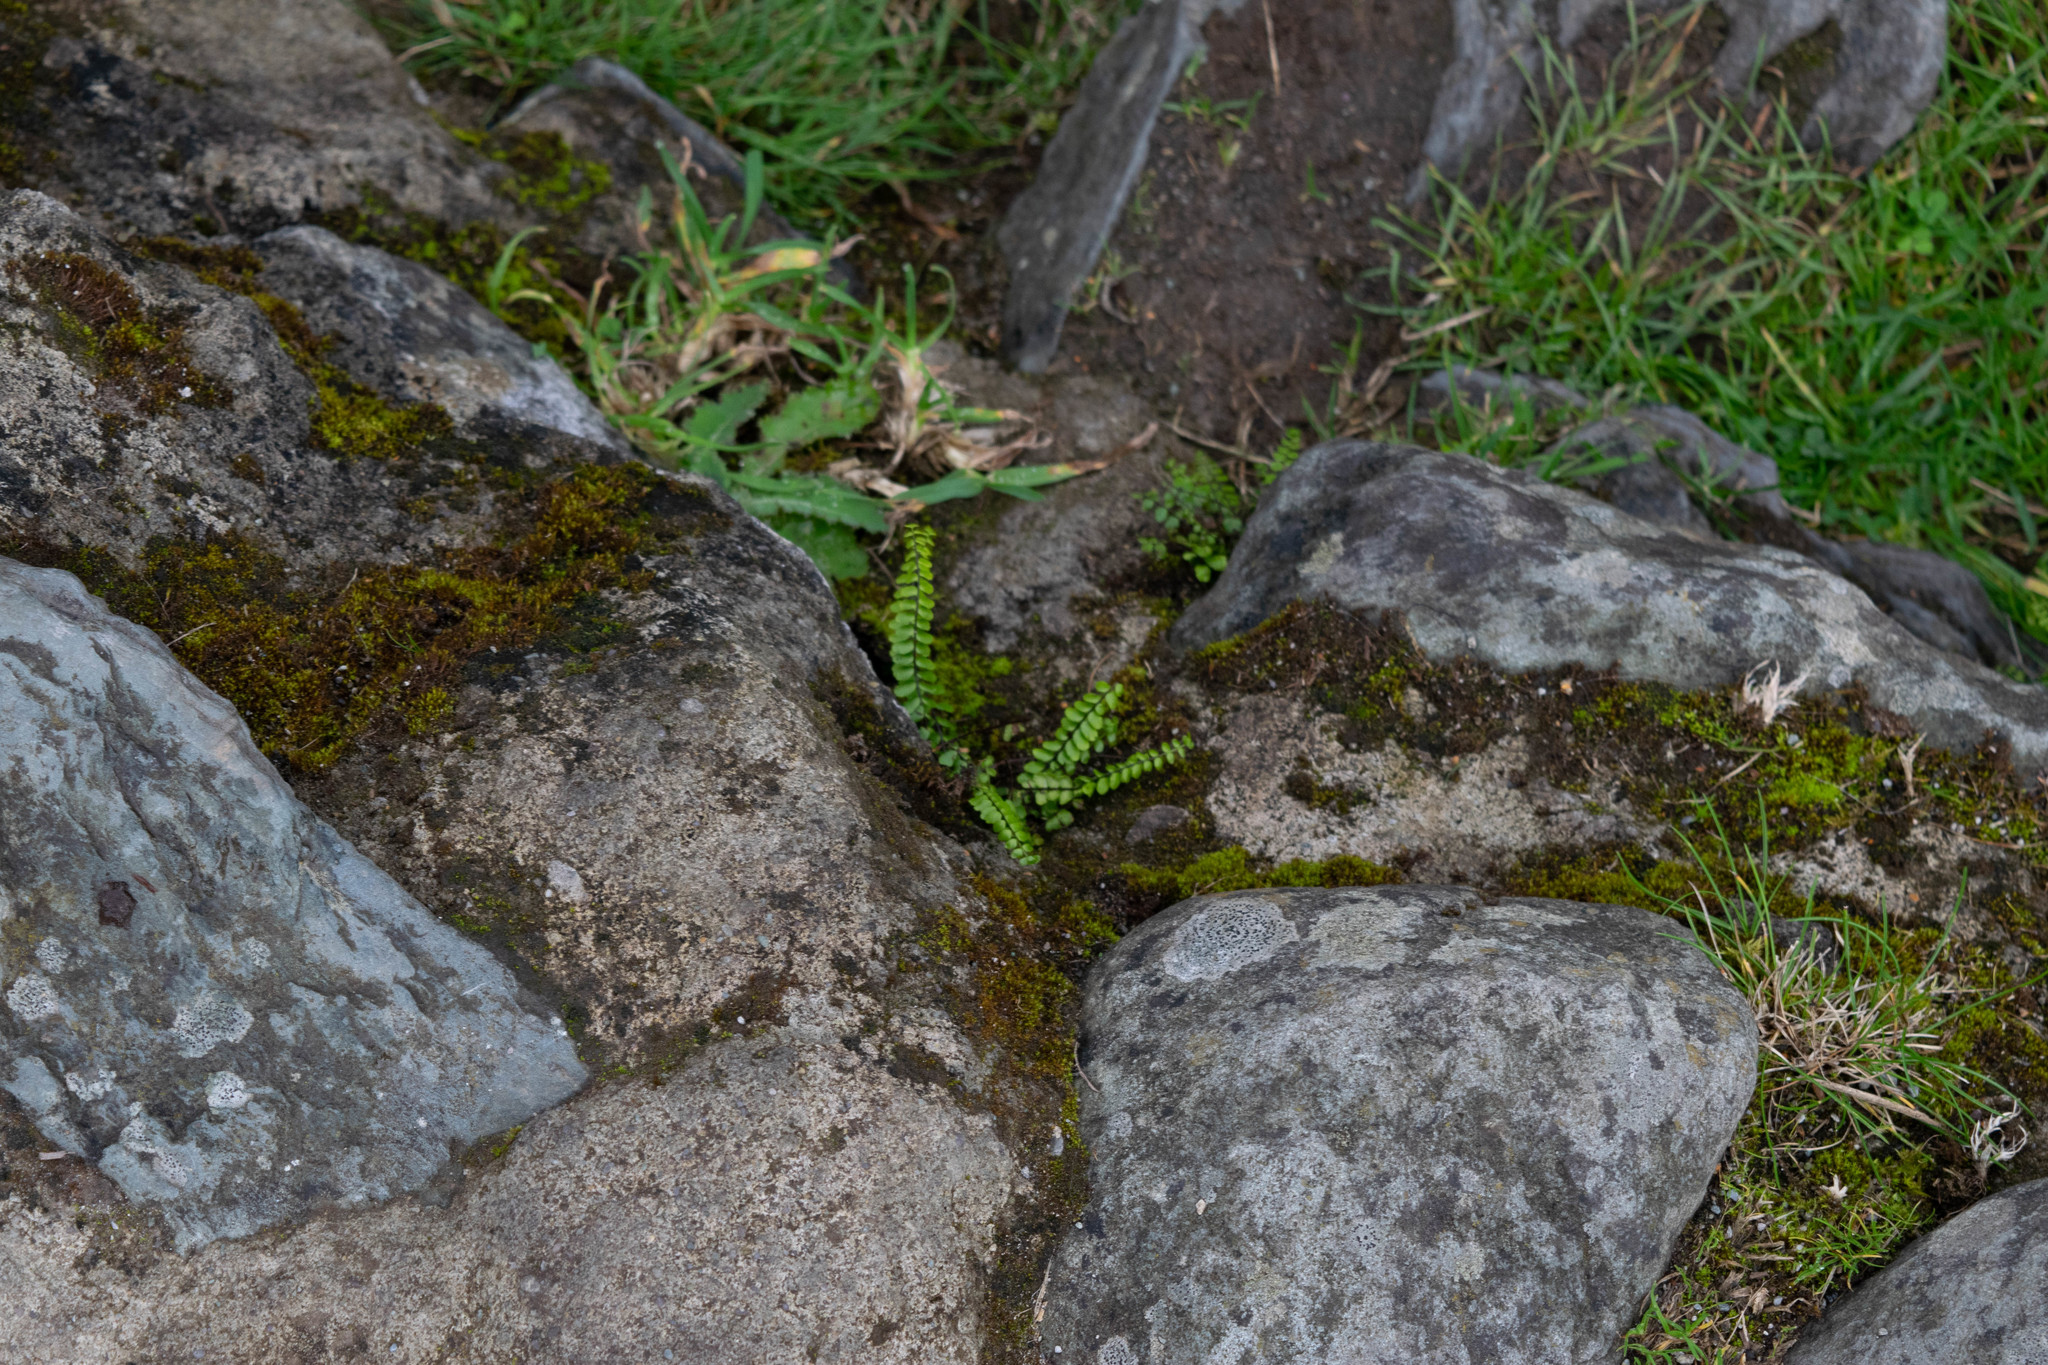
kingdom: Plantae
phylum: Tracheophyta
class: Polypodiopsida
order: Polypodiales
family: Aspleniaceae
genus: Asplenium
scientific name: Asplenium trichomanes
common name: Maidenhair spleenwort
